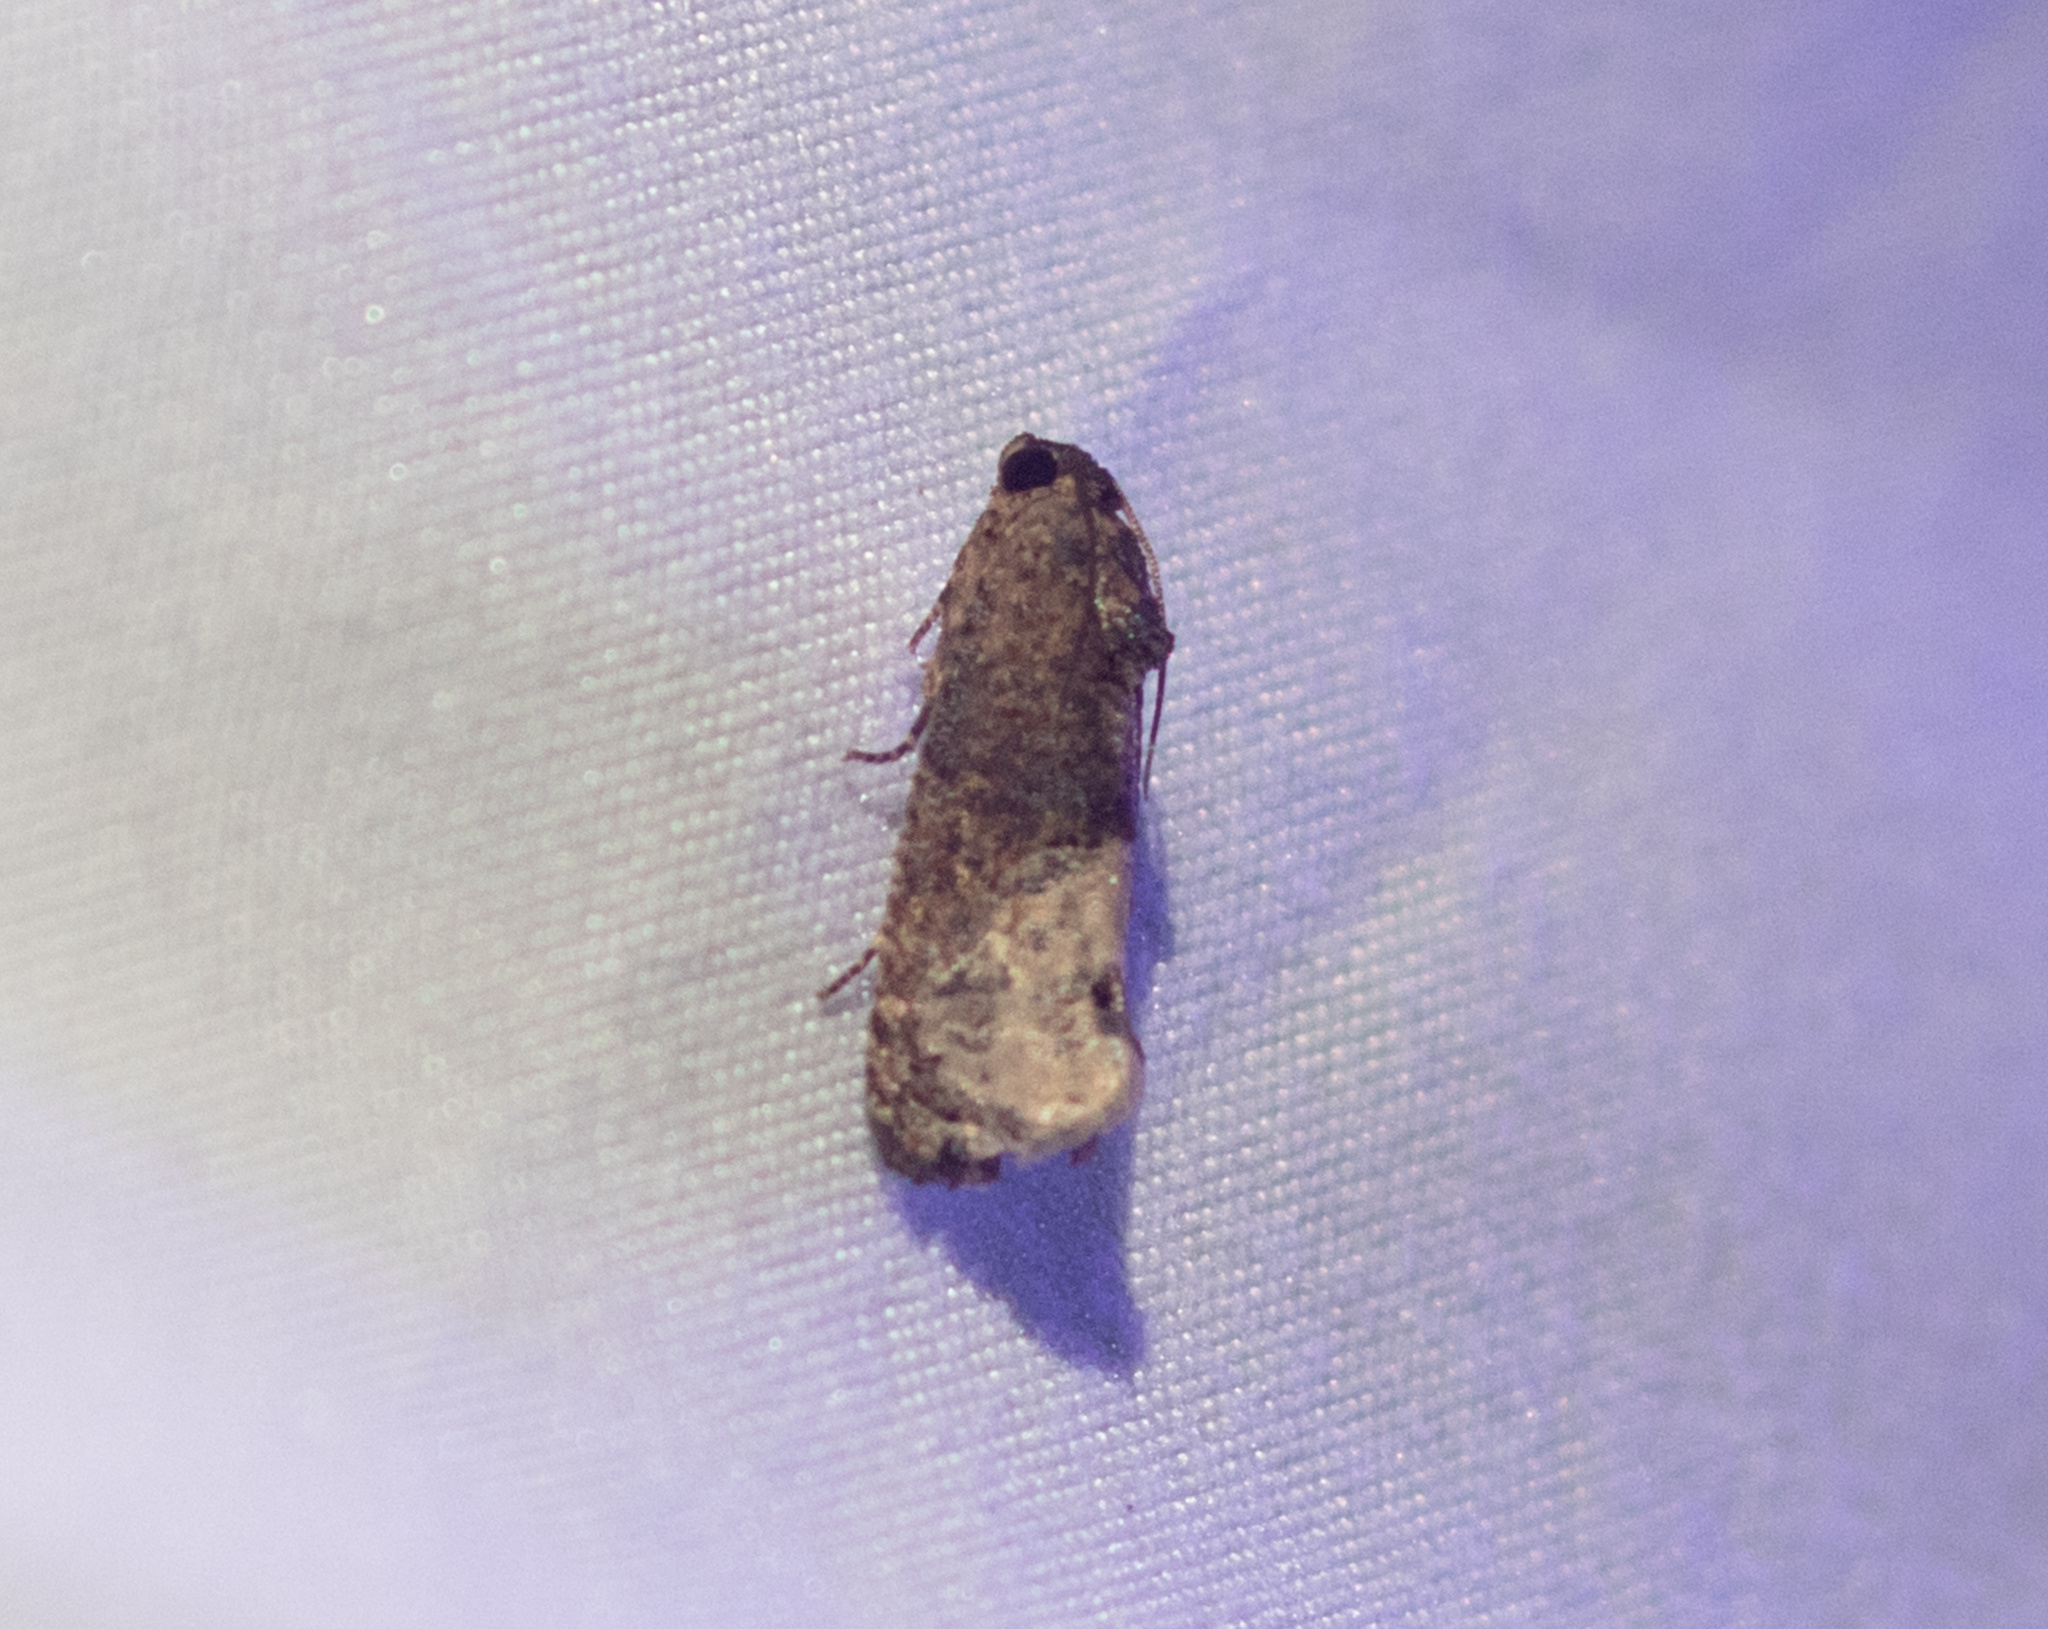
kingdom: Animalia
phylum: Arthropoda
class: Insecta
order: Lepidoptera
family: Tortricidae
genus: Ecdytolopha
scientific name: Ecdytolopha insiticiana
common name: Locust twig borer moth
